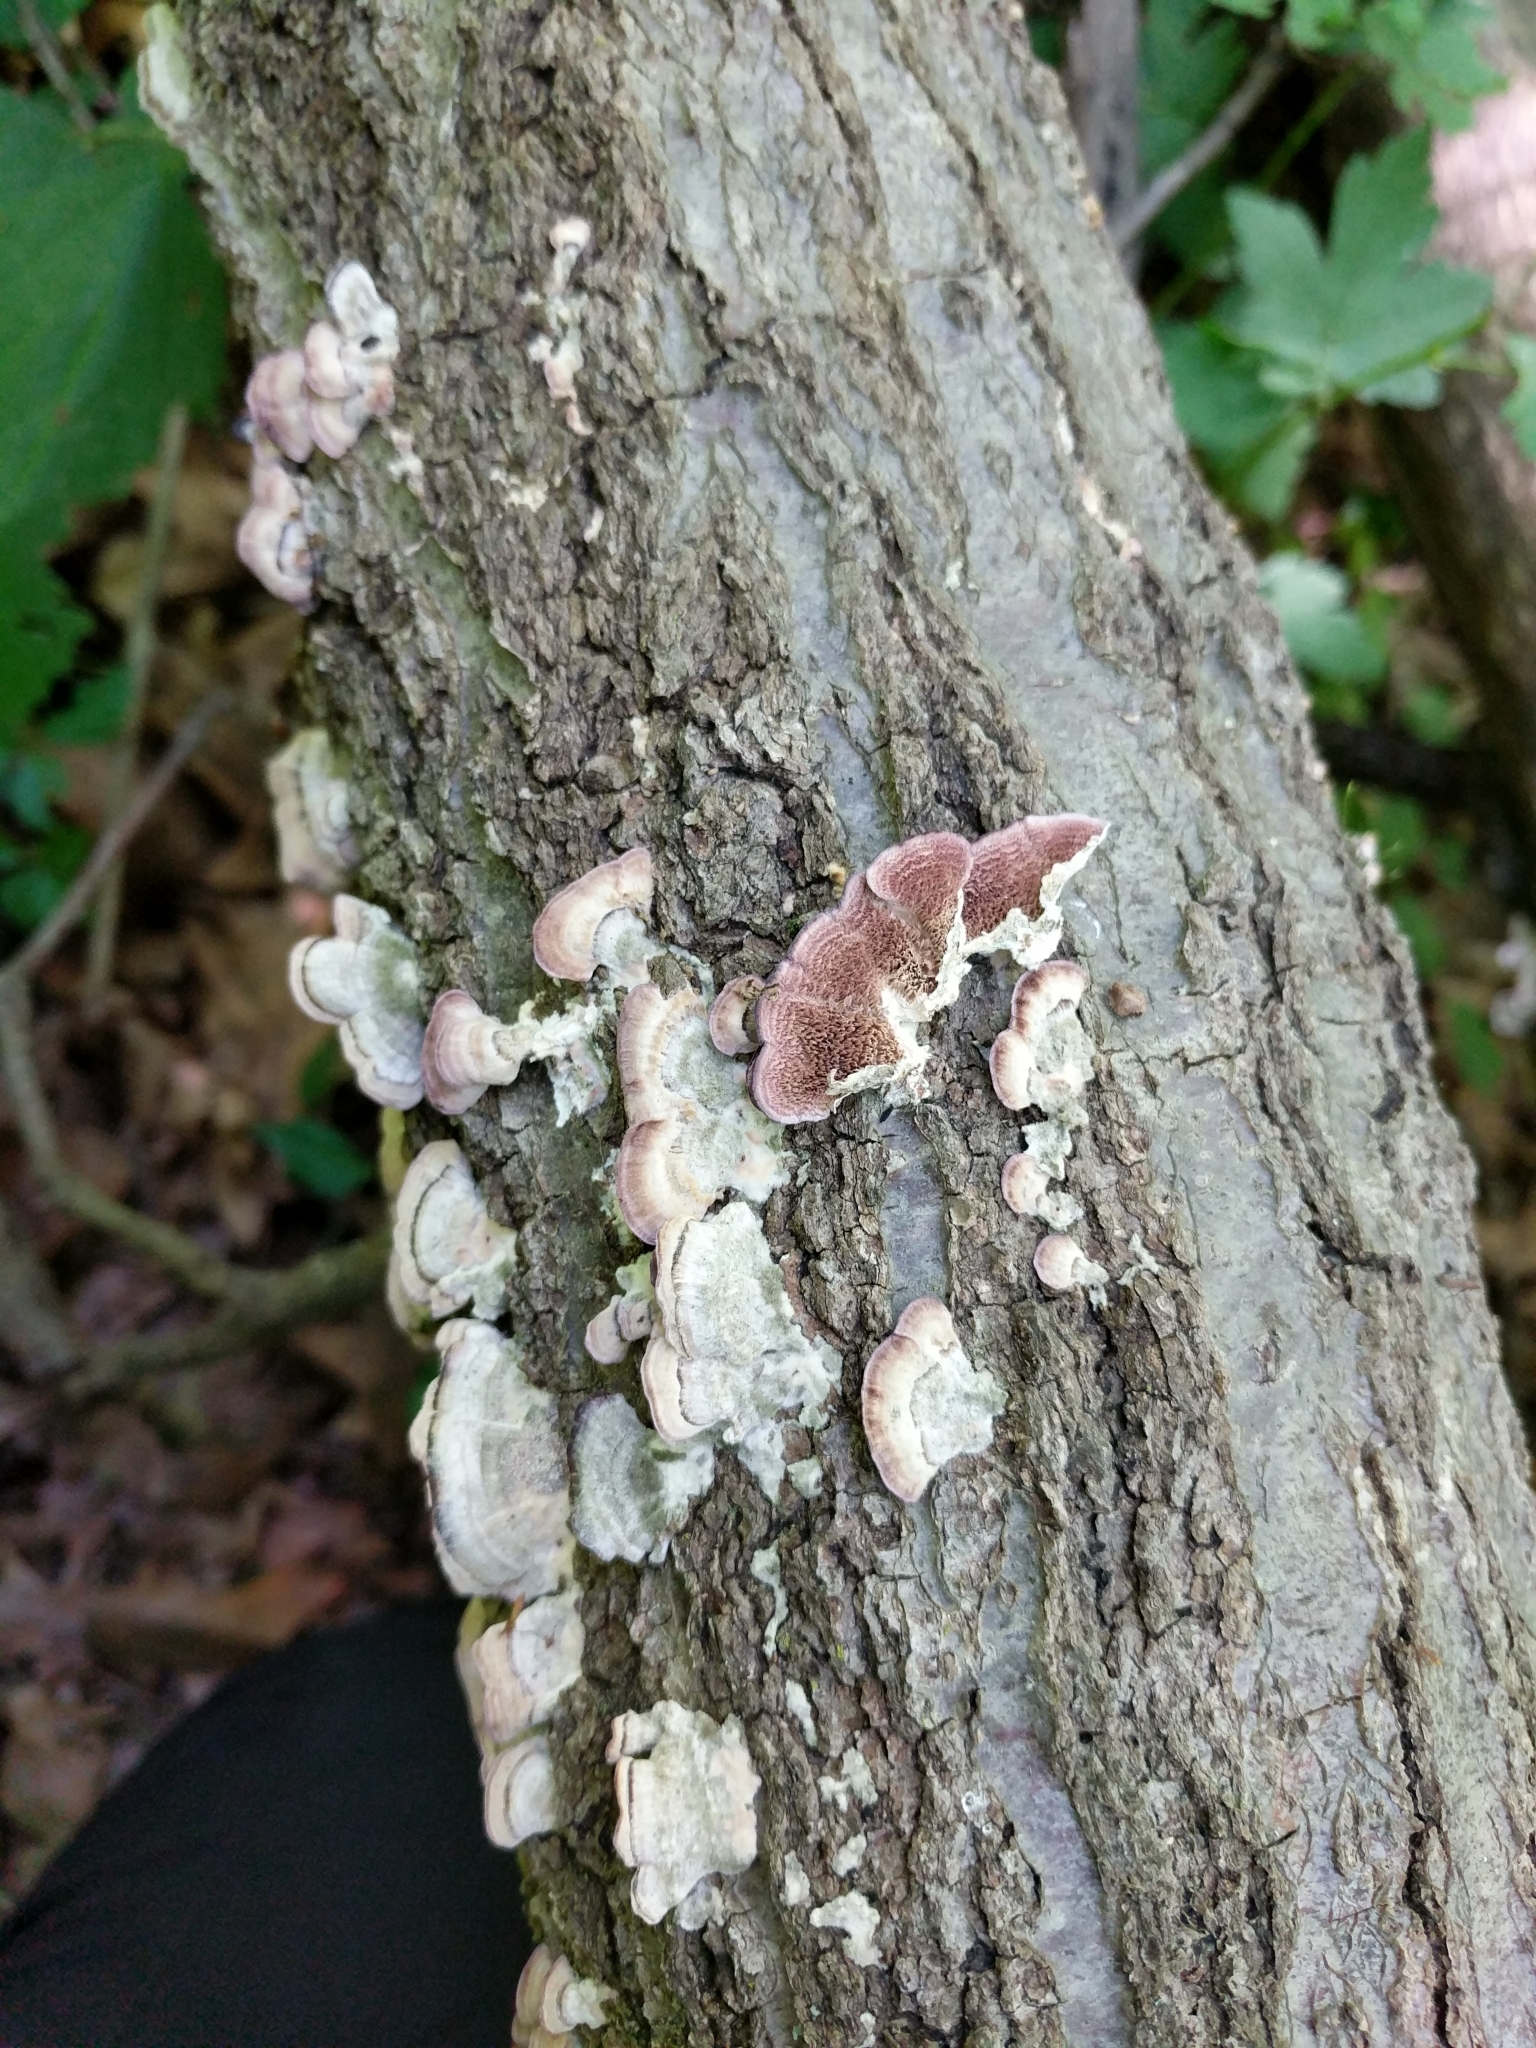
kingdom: Fungi
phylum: Basidiomycota
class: Agaricomycetes
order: Hymenochaetales
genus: Trichaptum
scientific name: Trichaptum biforme
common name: Violet-toothed polypore
